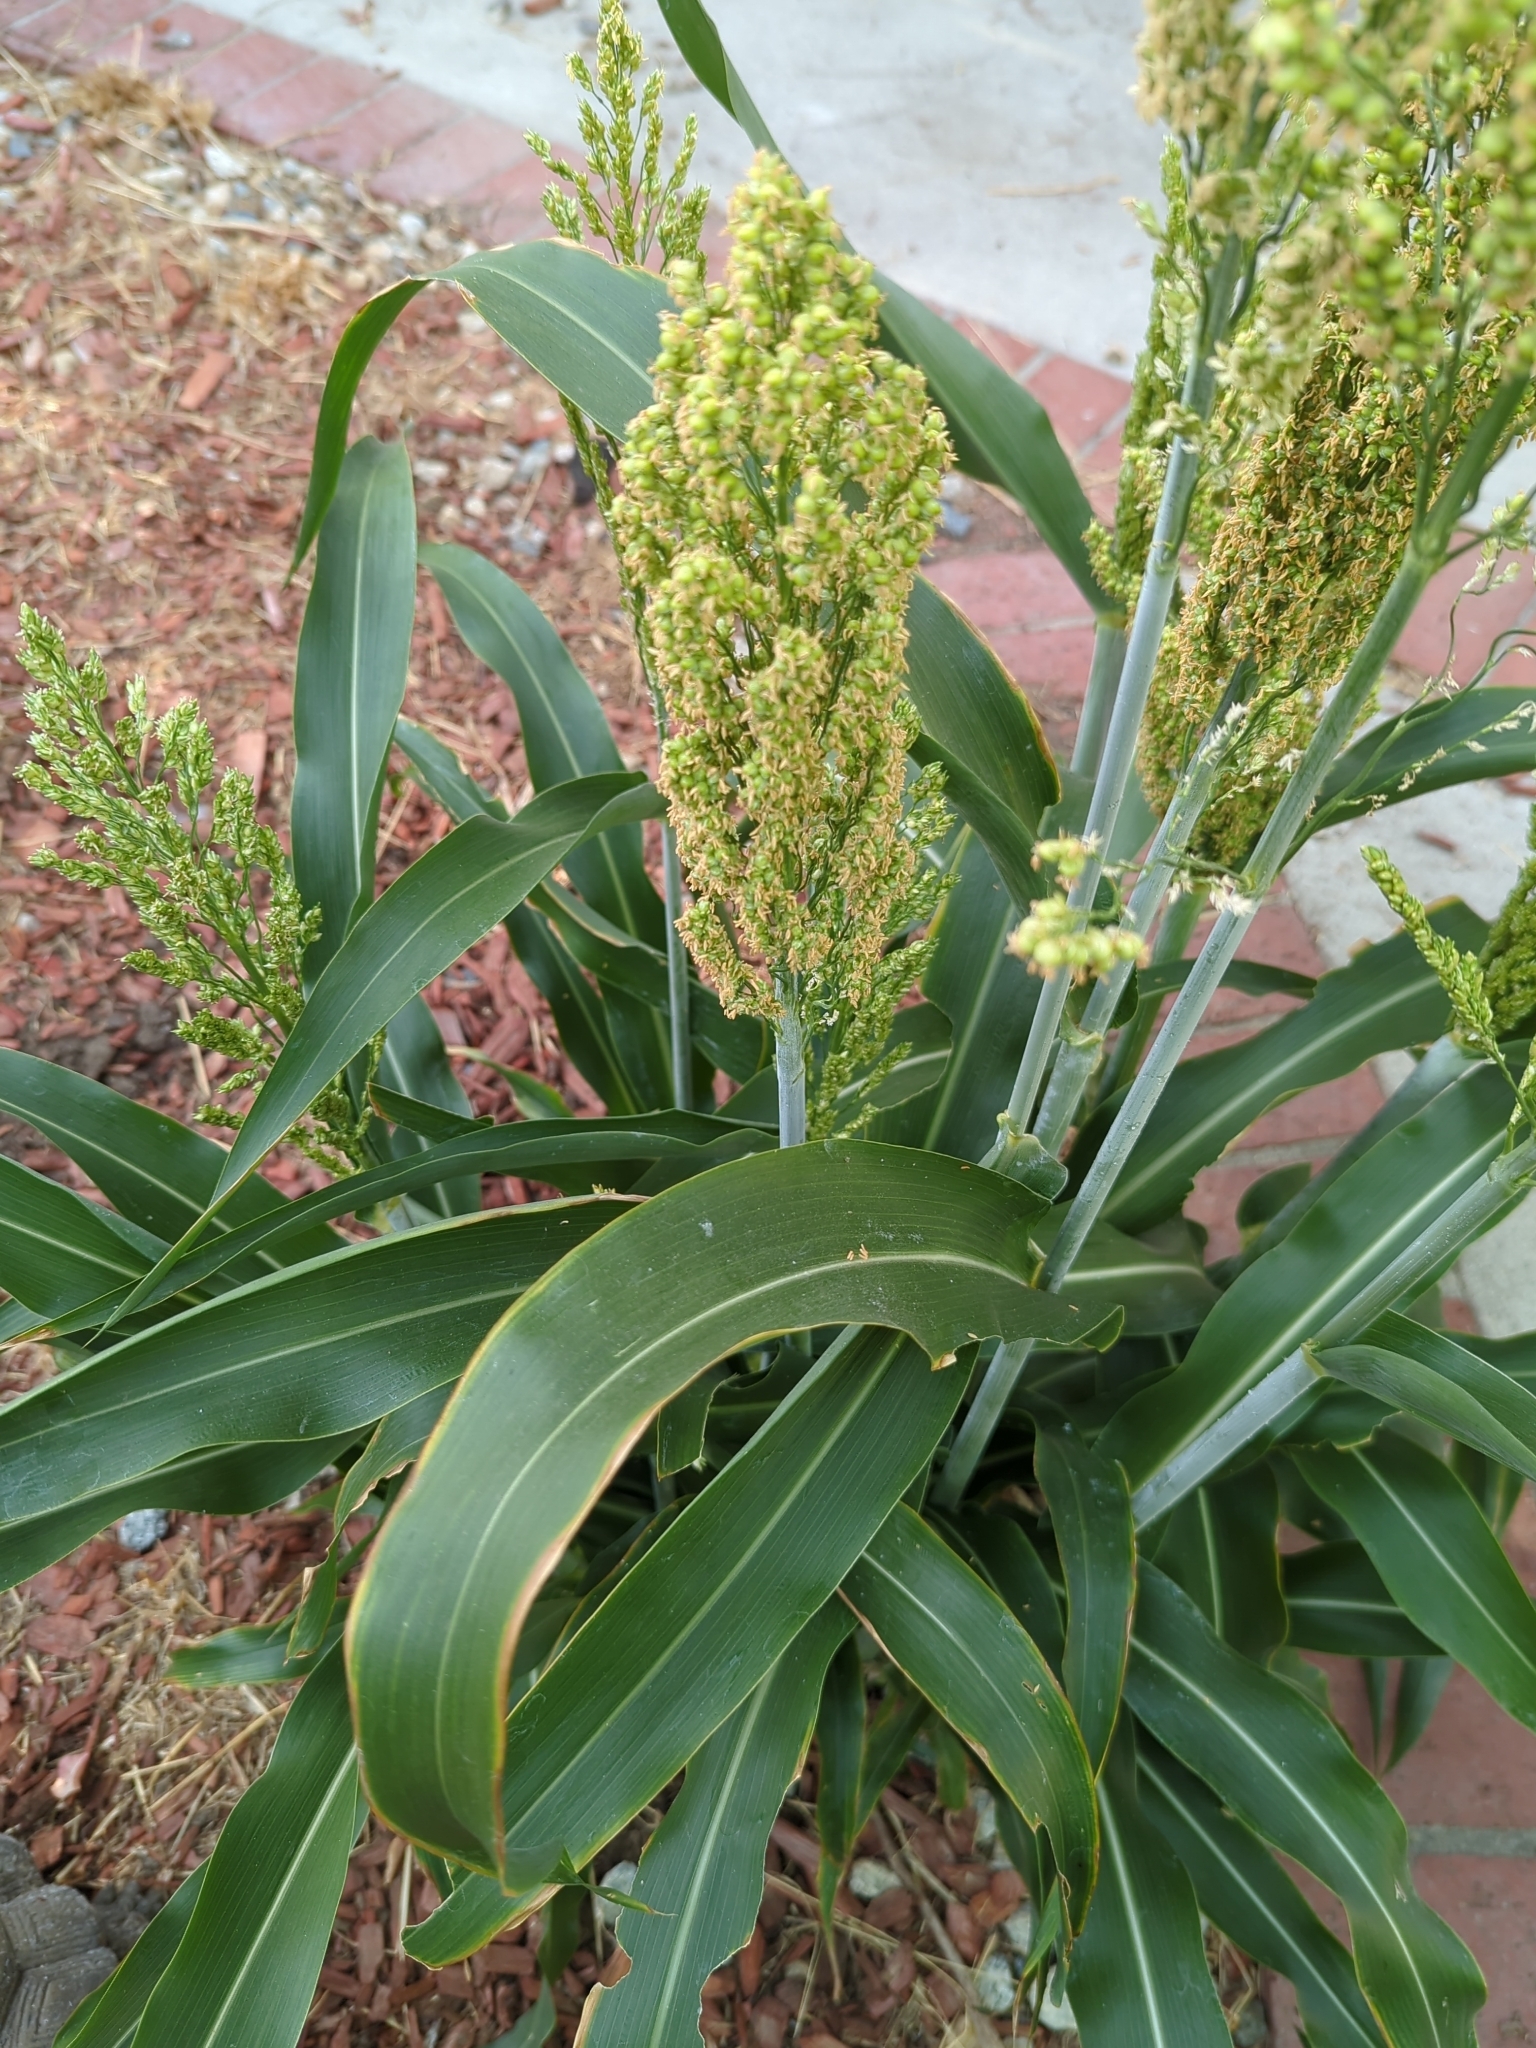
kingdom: Plantae
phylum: Tracheophyta
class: Liliopsida
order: Poales
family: Poaceae
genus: Sorghum
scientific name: Sorghum bicolor
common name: Sorghum
